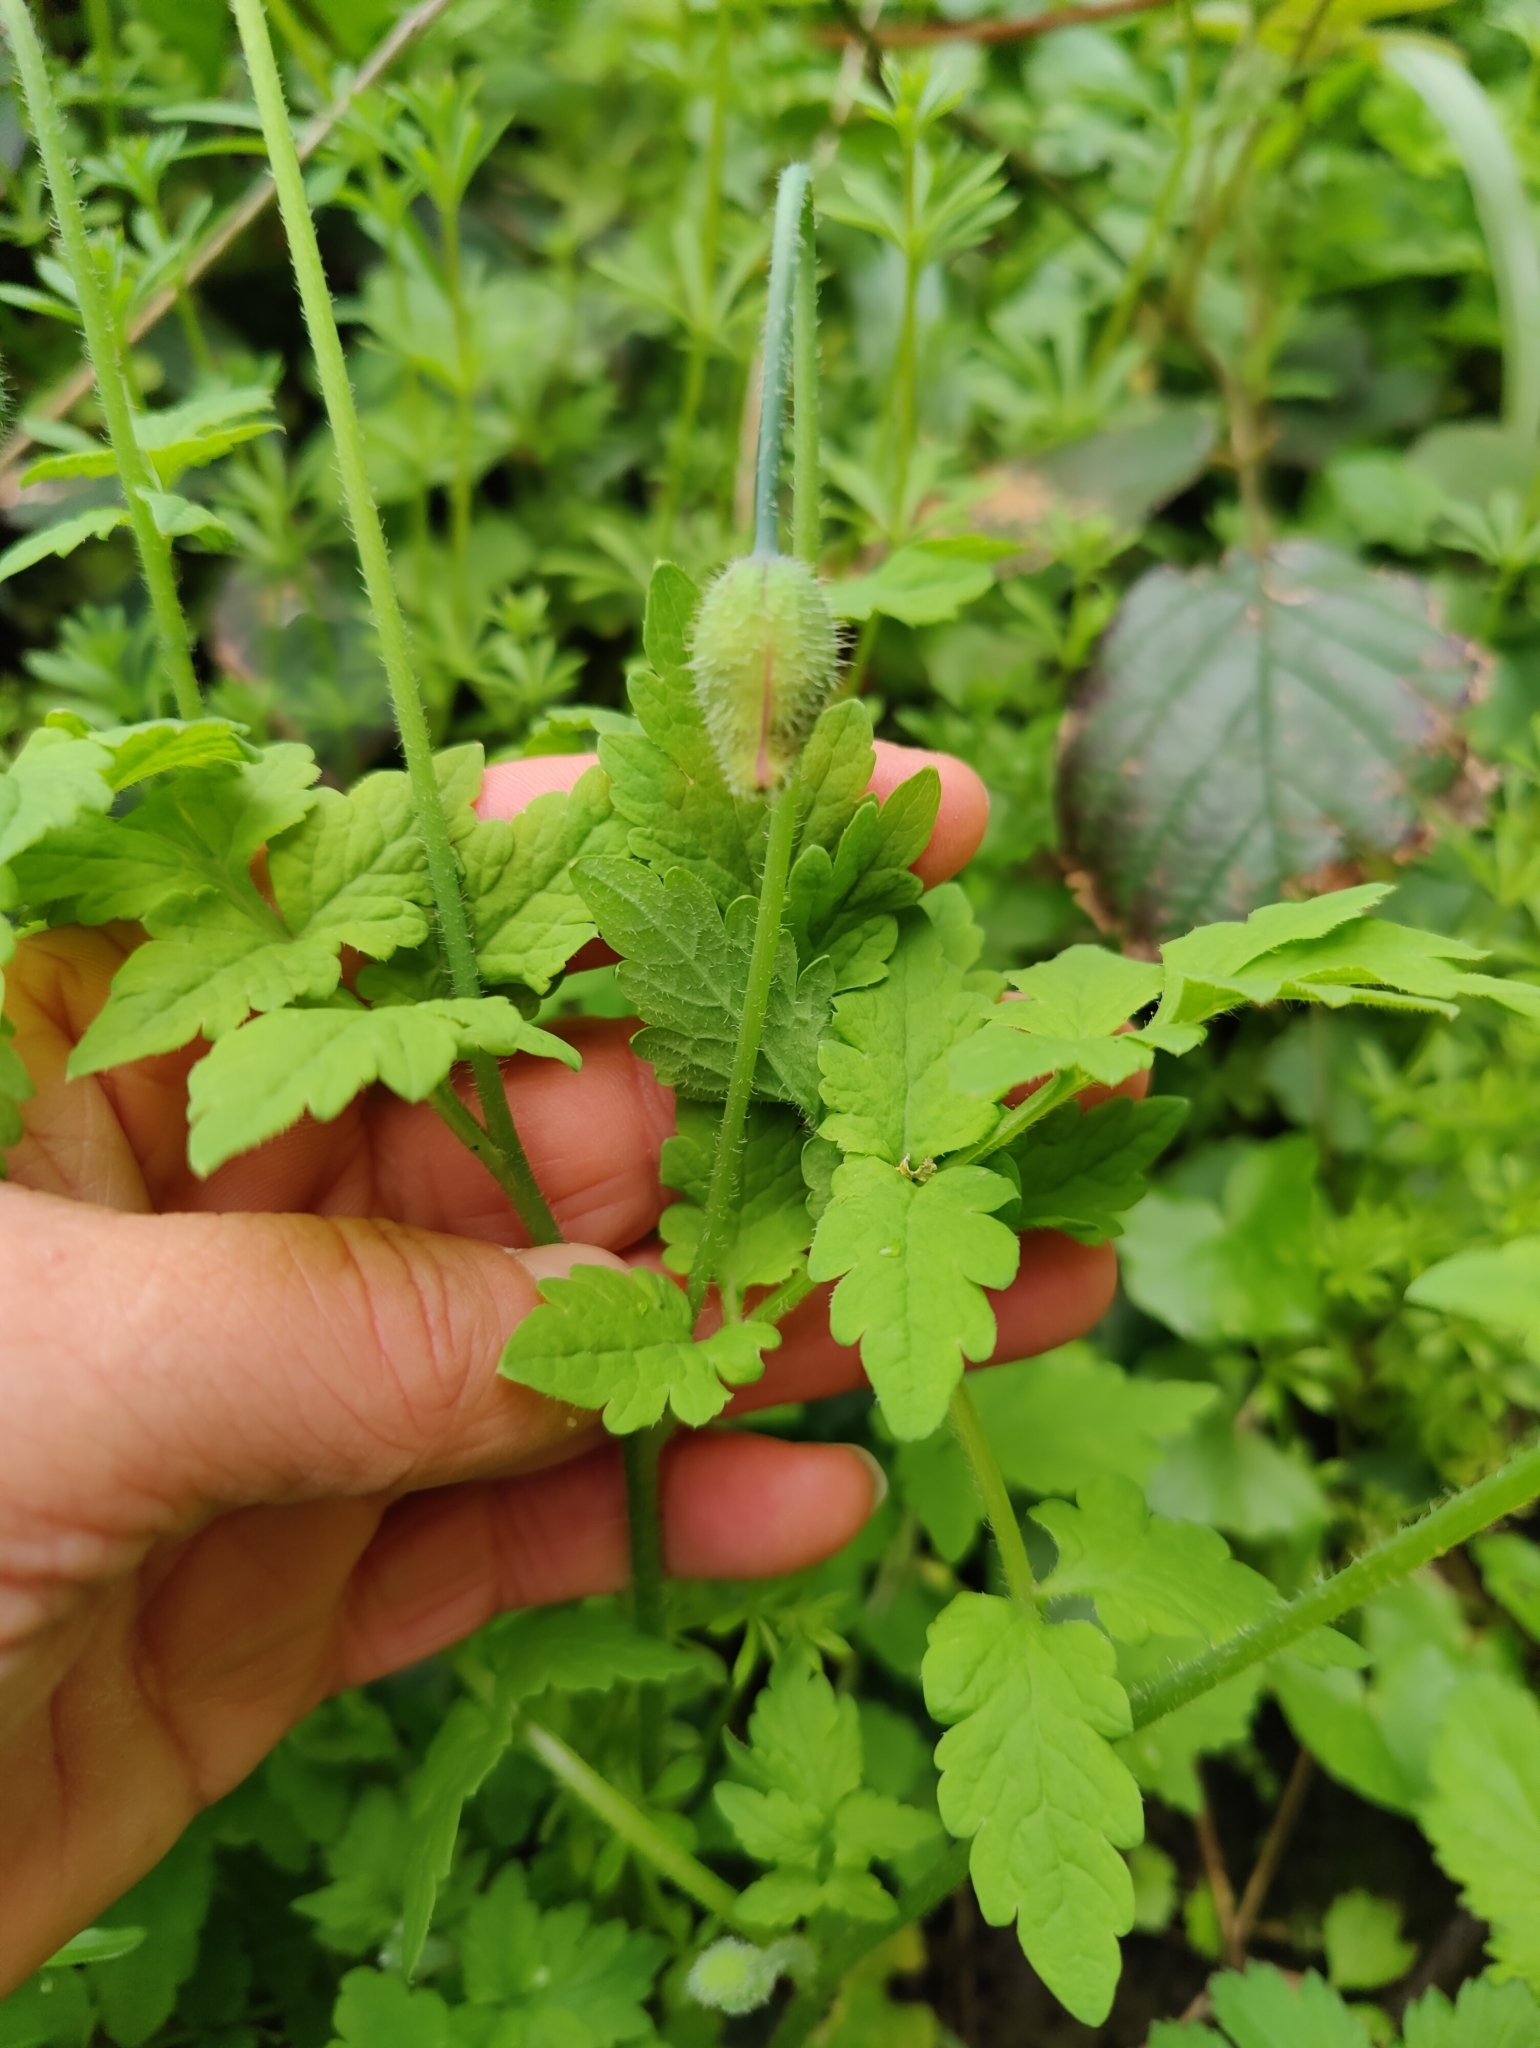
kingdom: Plantae
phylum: Tracheophyta
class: Magnoliopsida
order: Ranunculales
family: Papaveraceae
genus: Papaver
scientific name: Papaver cambricum
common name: Poppy
